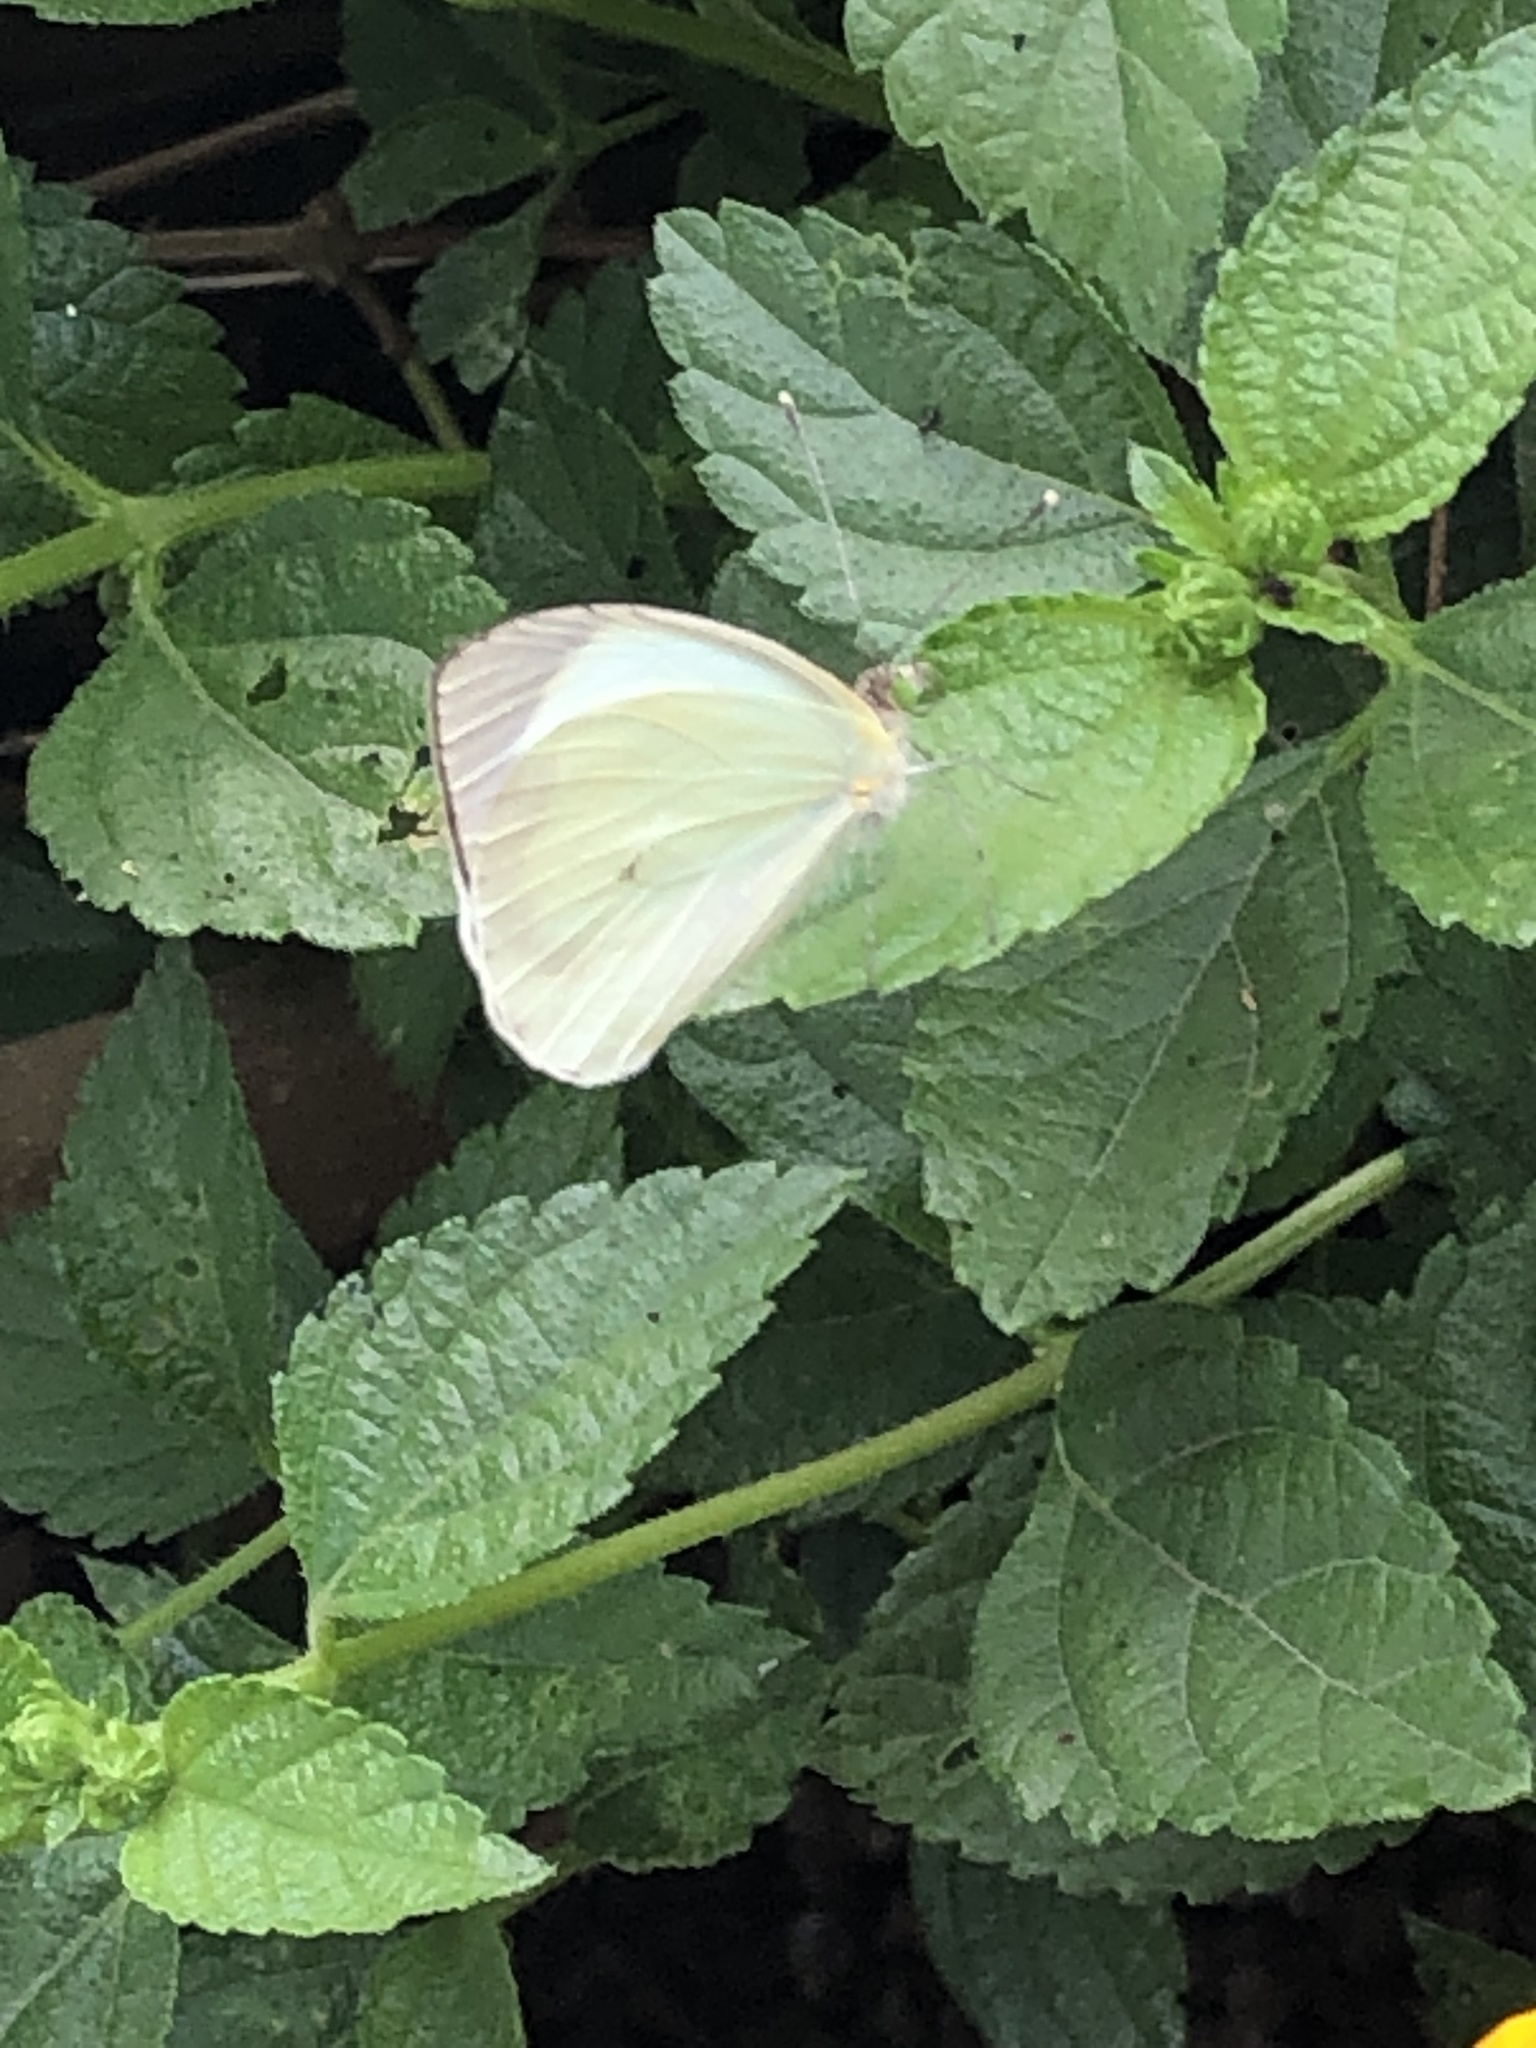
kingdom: Animalia
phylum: Arthropoda
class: Insecta
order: Lepidoptera
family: Pieridae
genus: Leptophobia
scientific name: Leptophobia aripa
